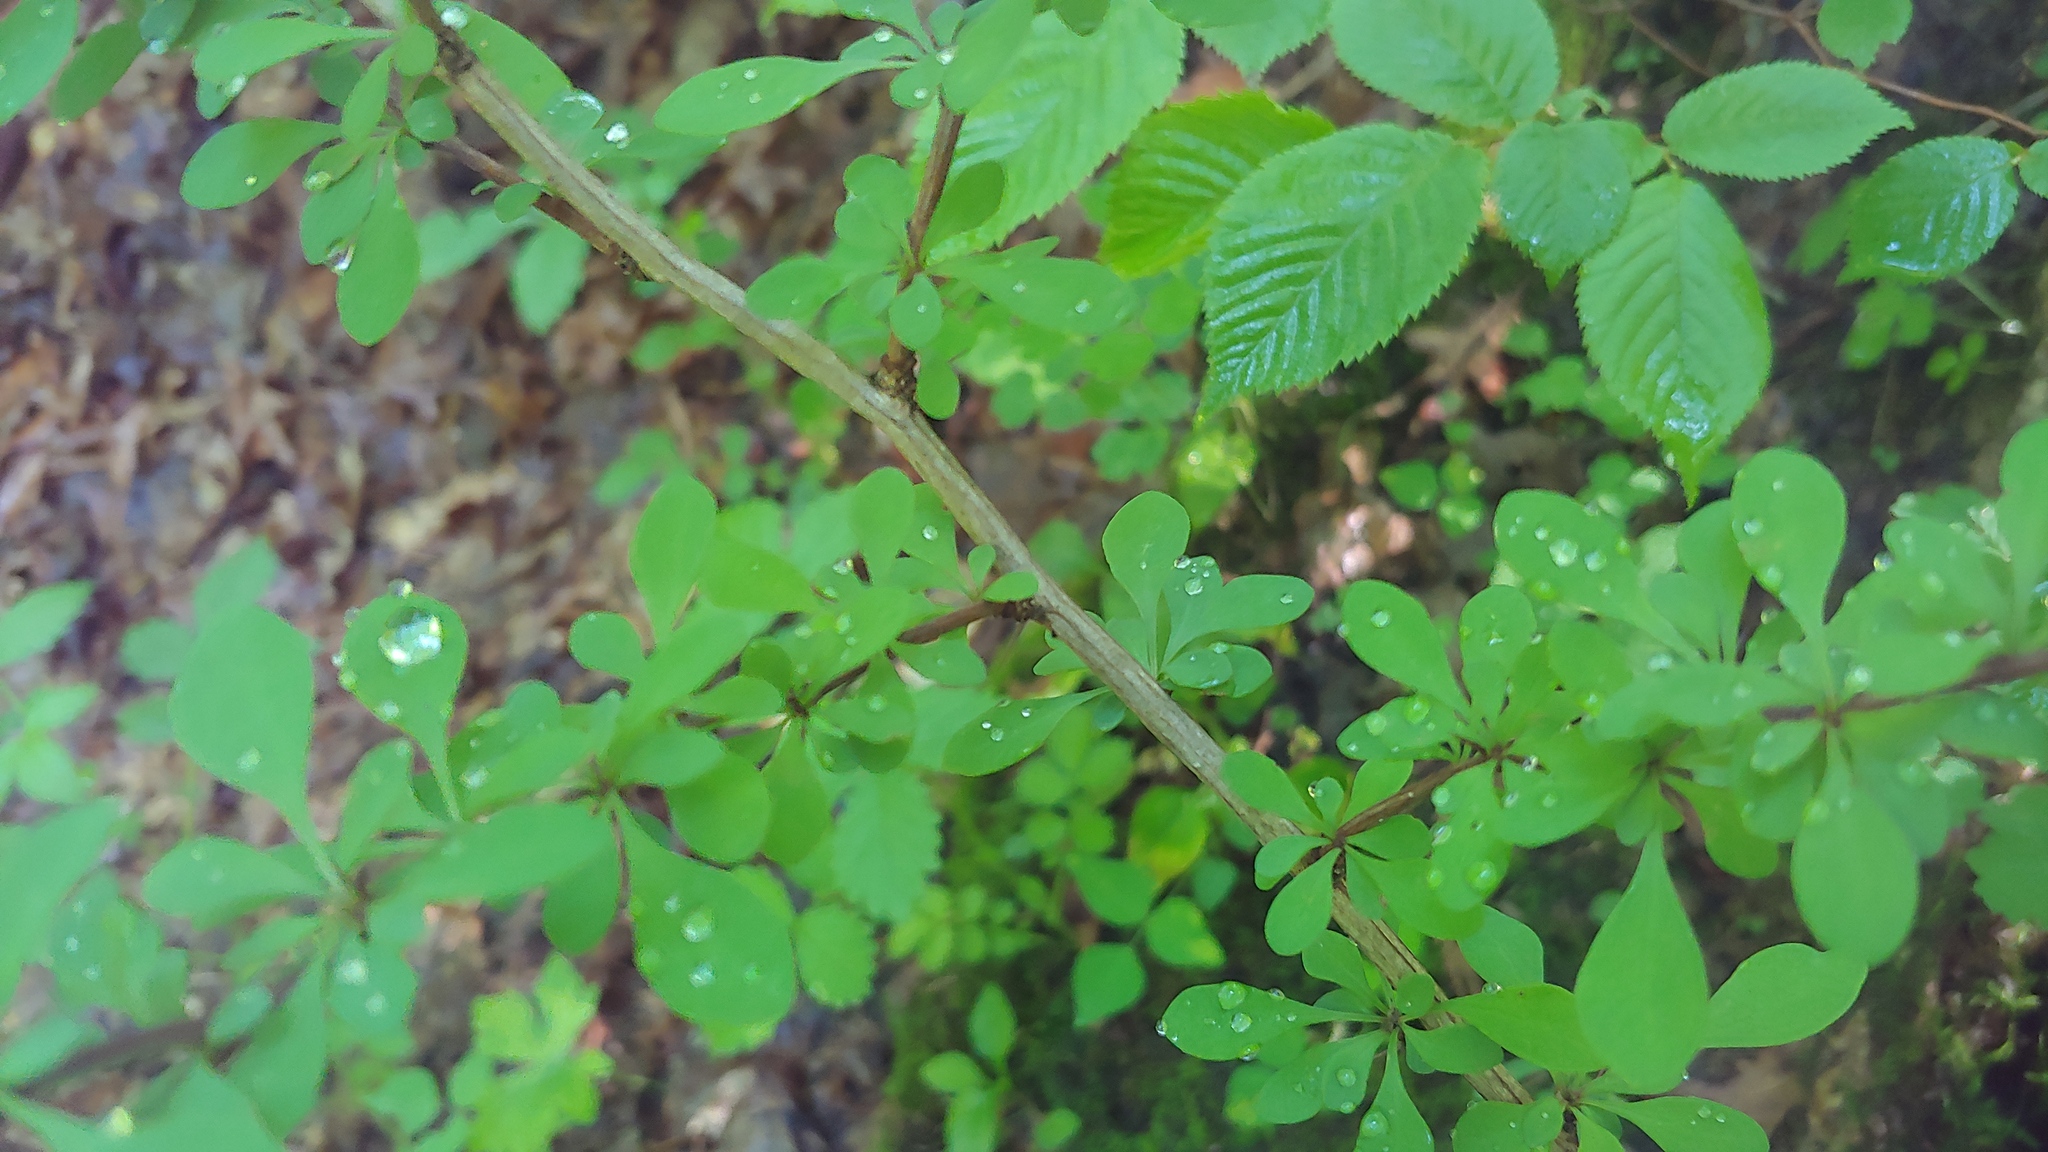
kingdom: Plantae
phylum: Tracheophyta
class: Magnoliopsida
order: Ranunculales
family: Berberidaceae
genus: Berberis
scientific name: Berberis thunbergii
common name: Japanese barberry
